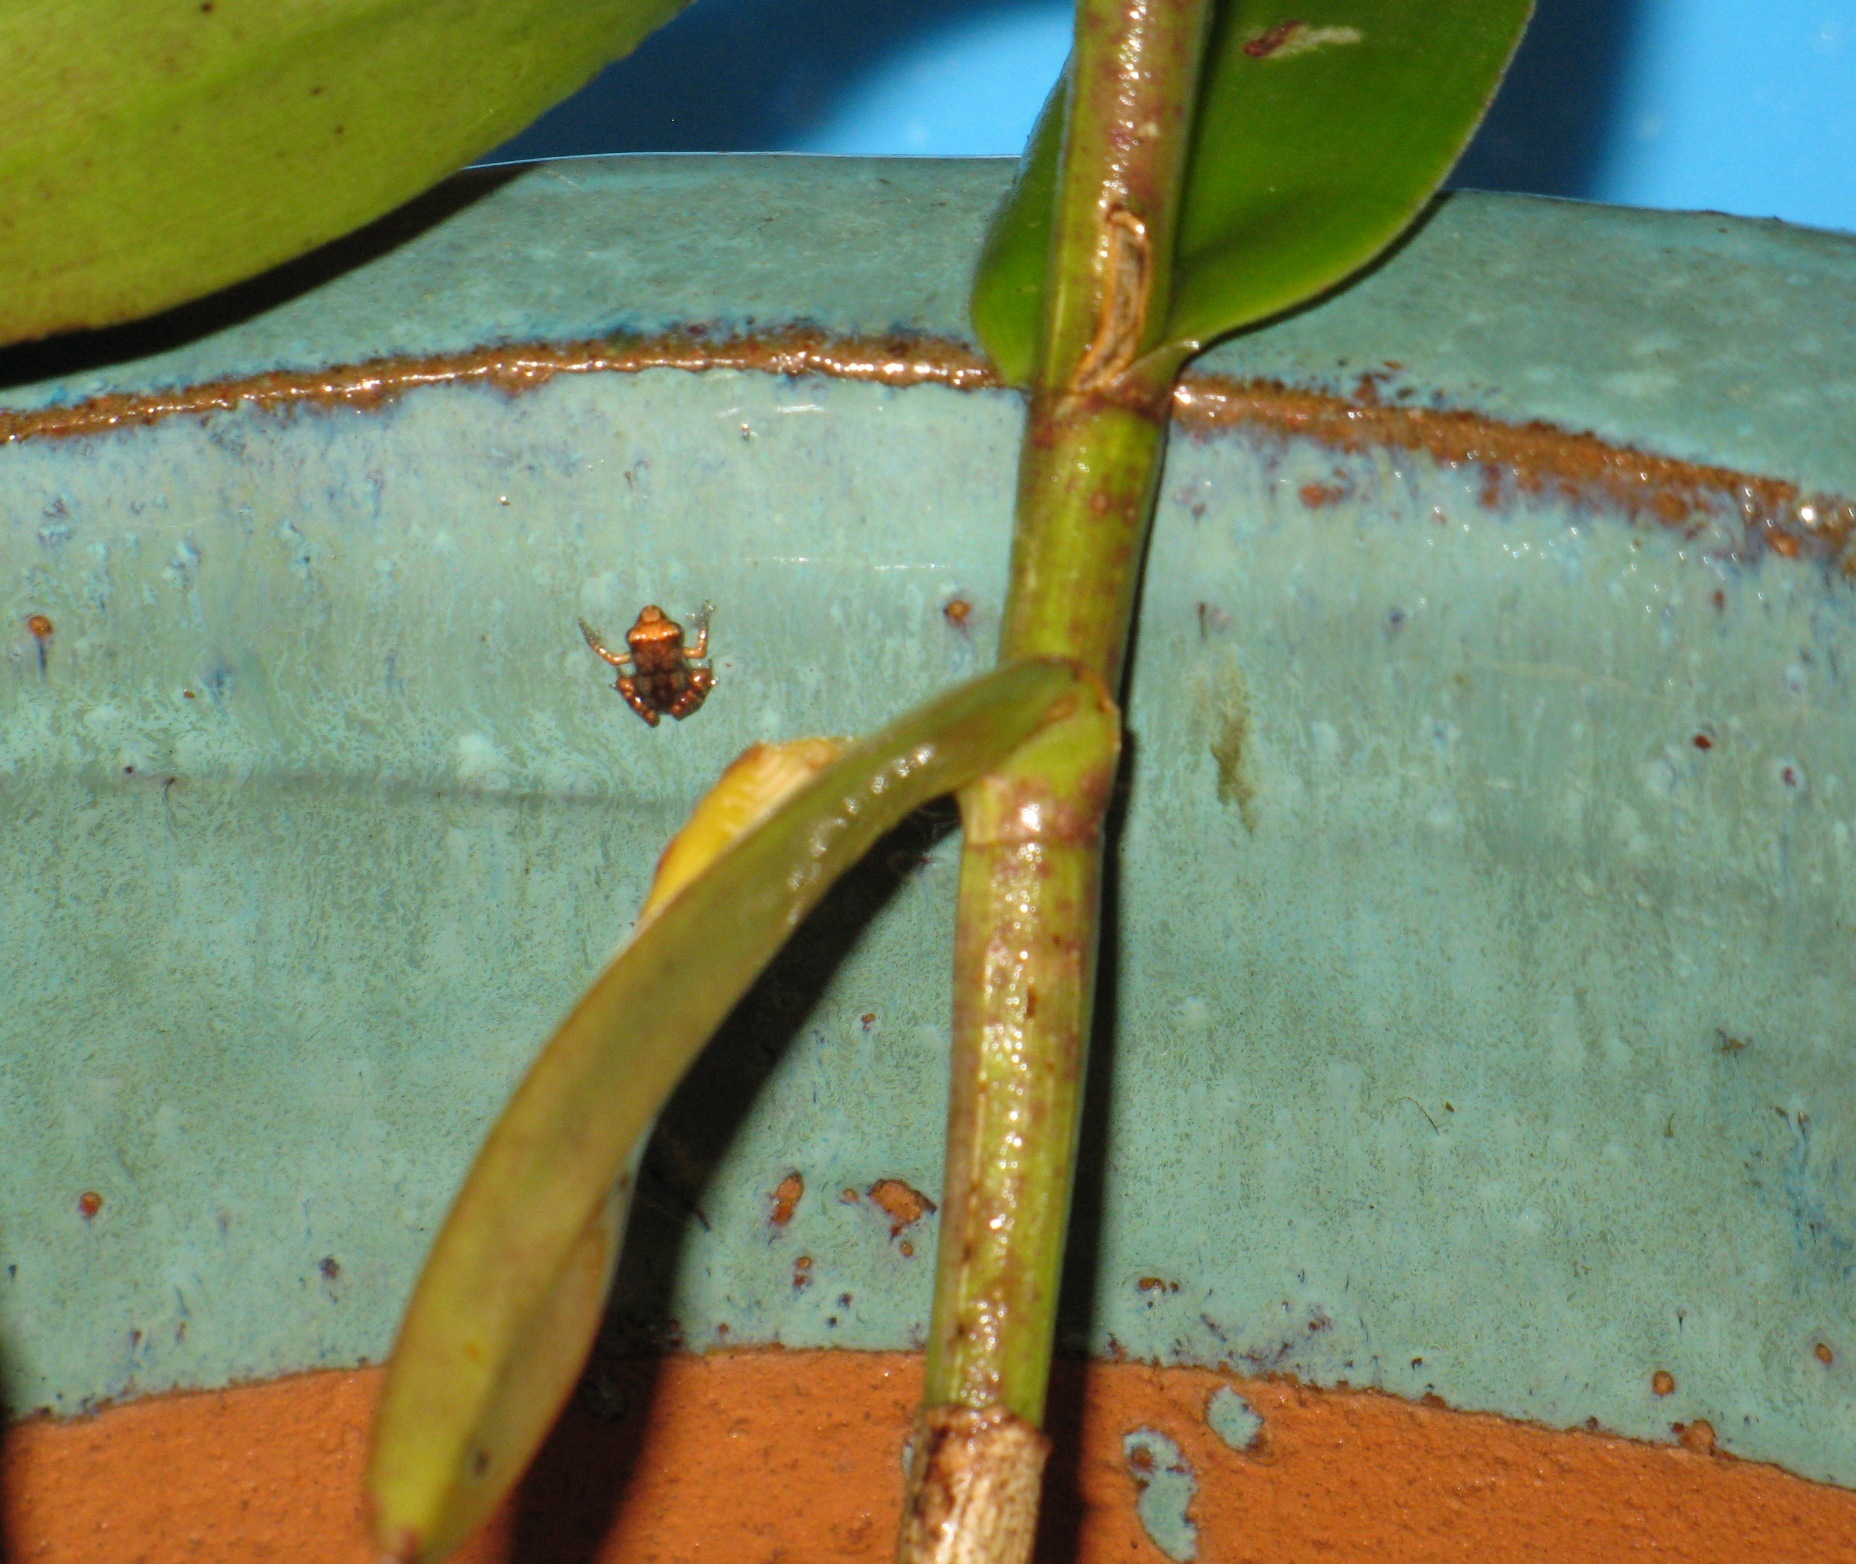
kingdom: Animalia
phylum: Chordata
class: Amphibia
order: Anura
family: Eleutherodactylidae
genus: Eleutherodactylus
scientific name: Eleutherodactylus planirostris
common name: Greenhouse frog
